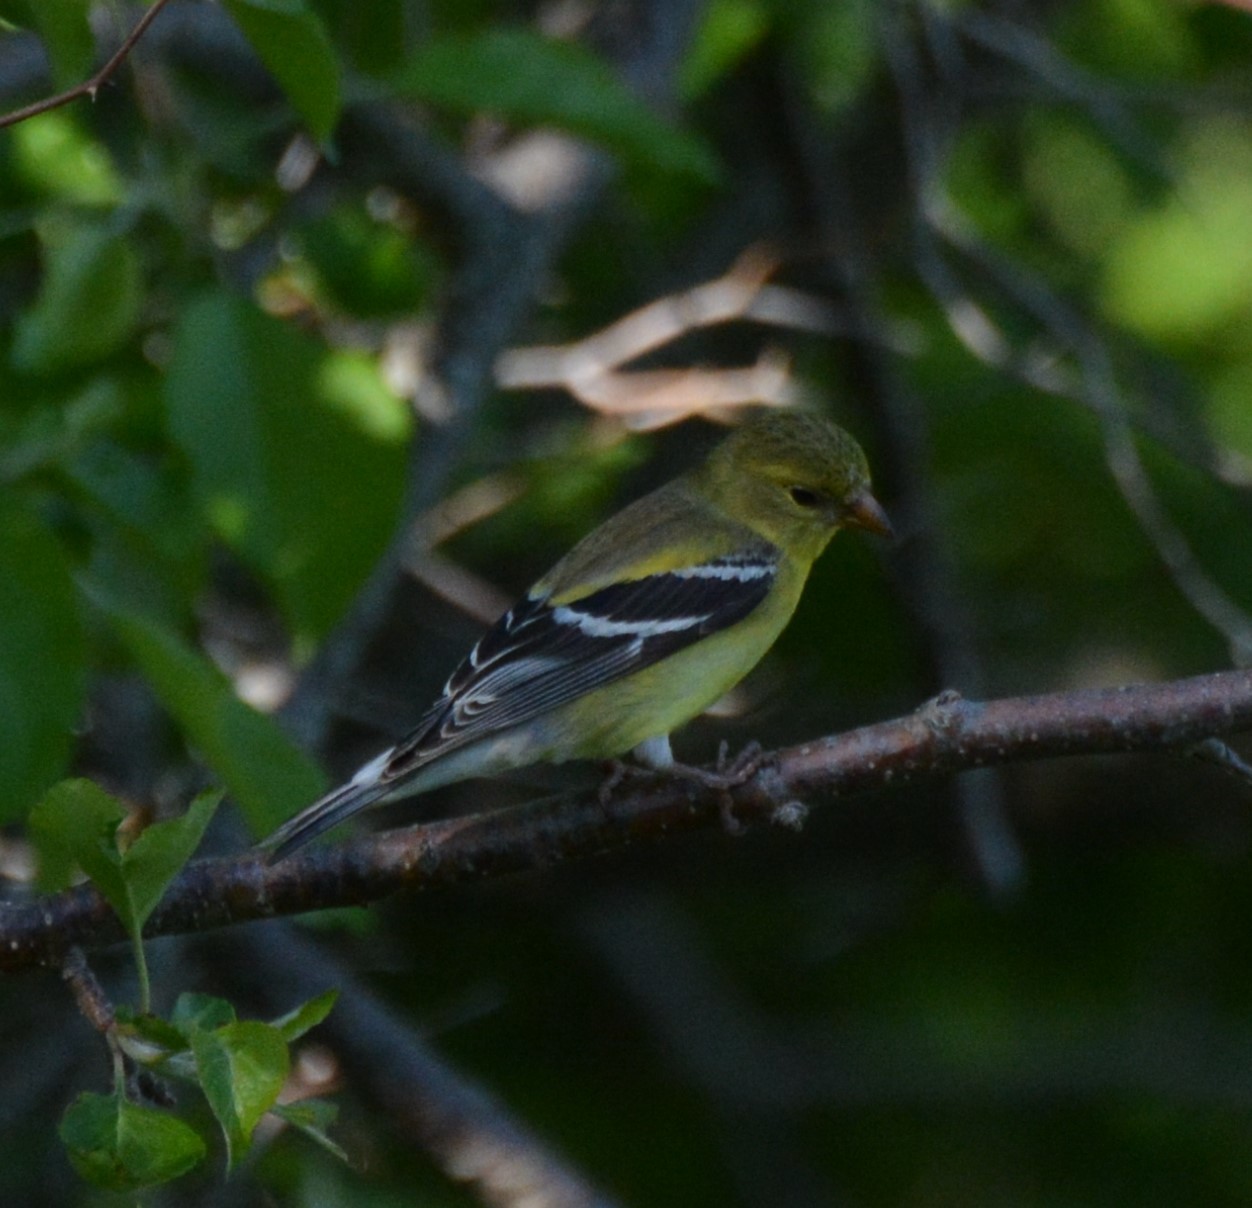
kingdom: Animalia
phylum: Chordata
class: Aves
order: Passeriformes
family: Fringillidae
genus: Spinus
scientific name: Spinus tristis
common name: American goldfinch
